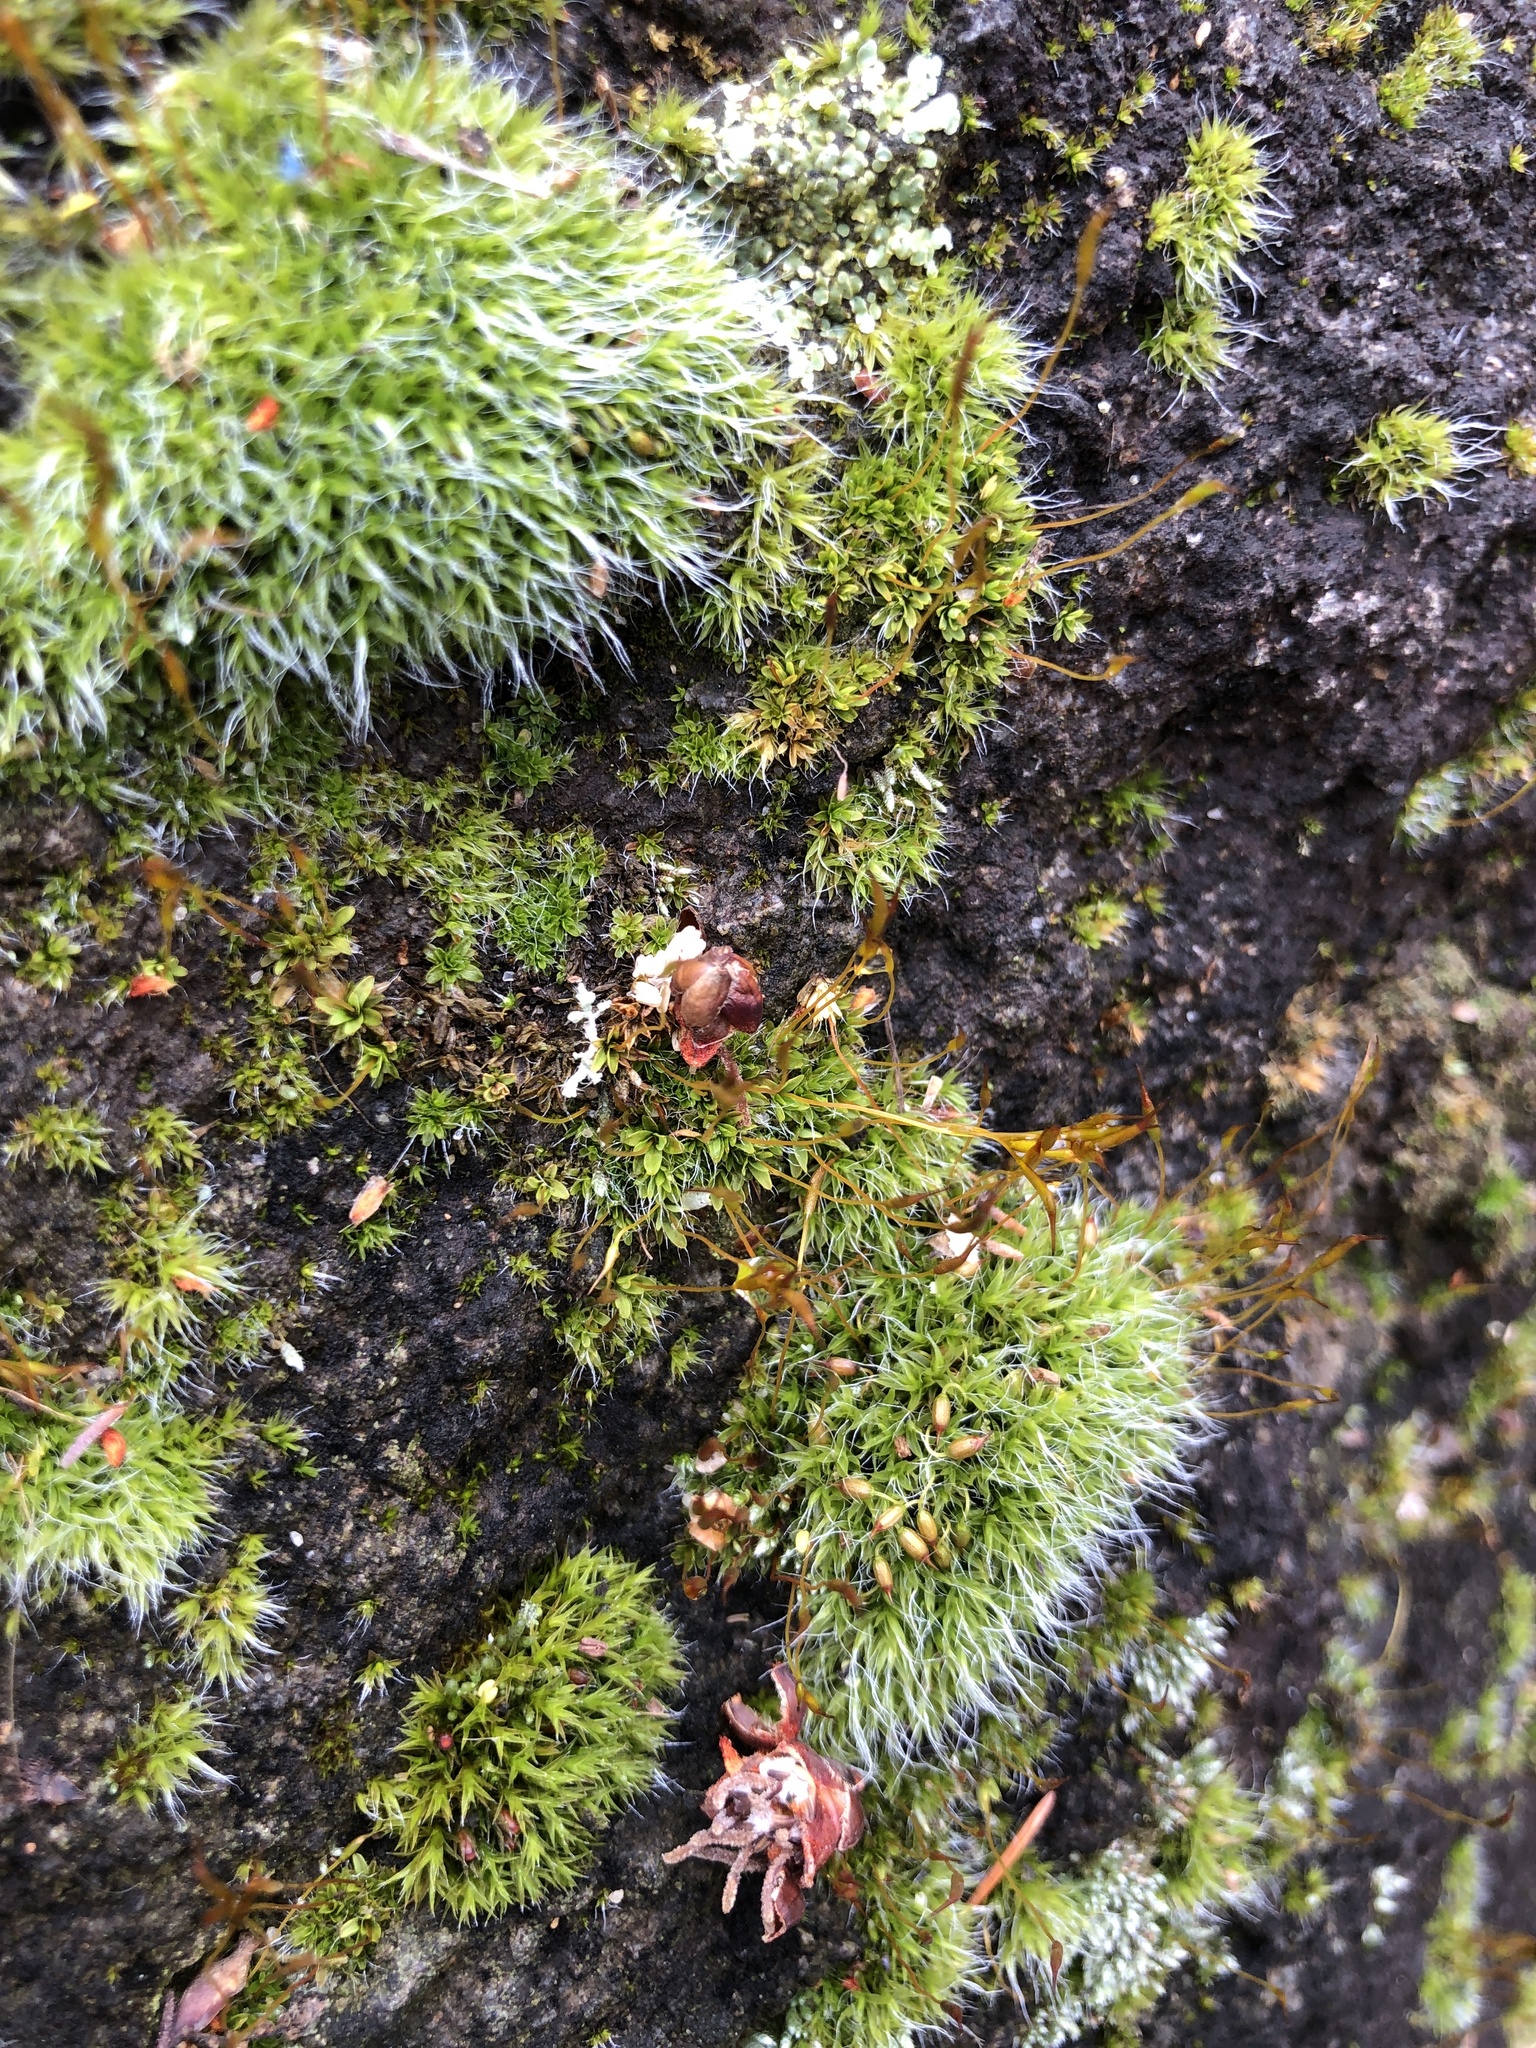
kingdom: Plantae
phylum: Bryophyta
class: Bryopsida
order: Pottiales
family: Pottiaceae
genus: Tortula
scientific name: Tortula muralis
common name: Wall screw-moss
